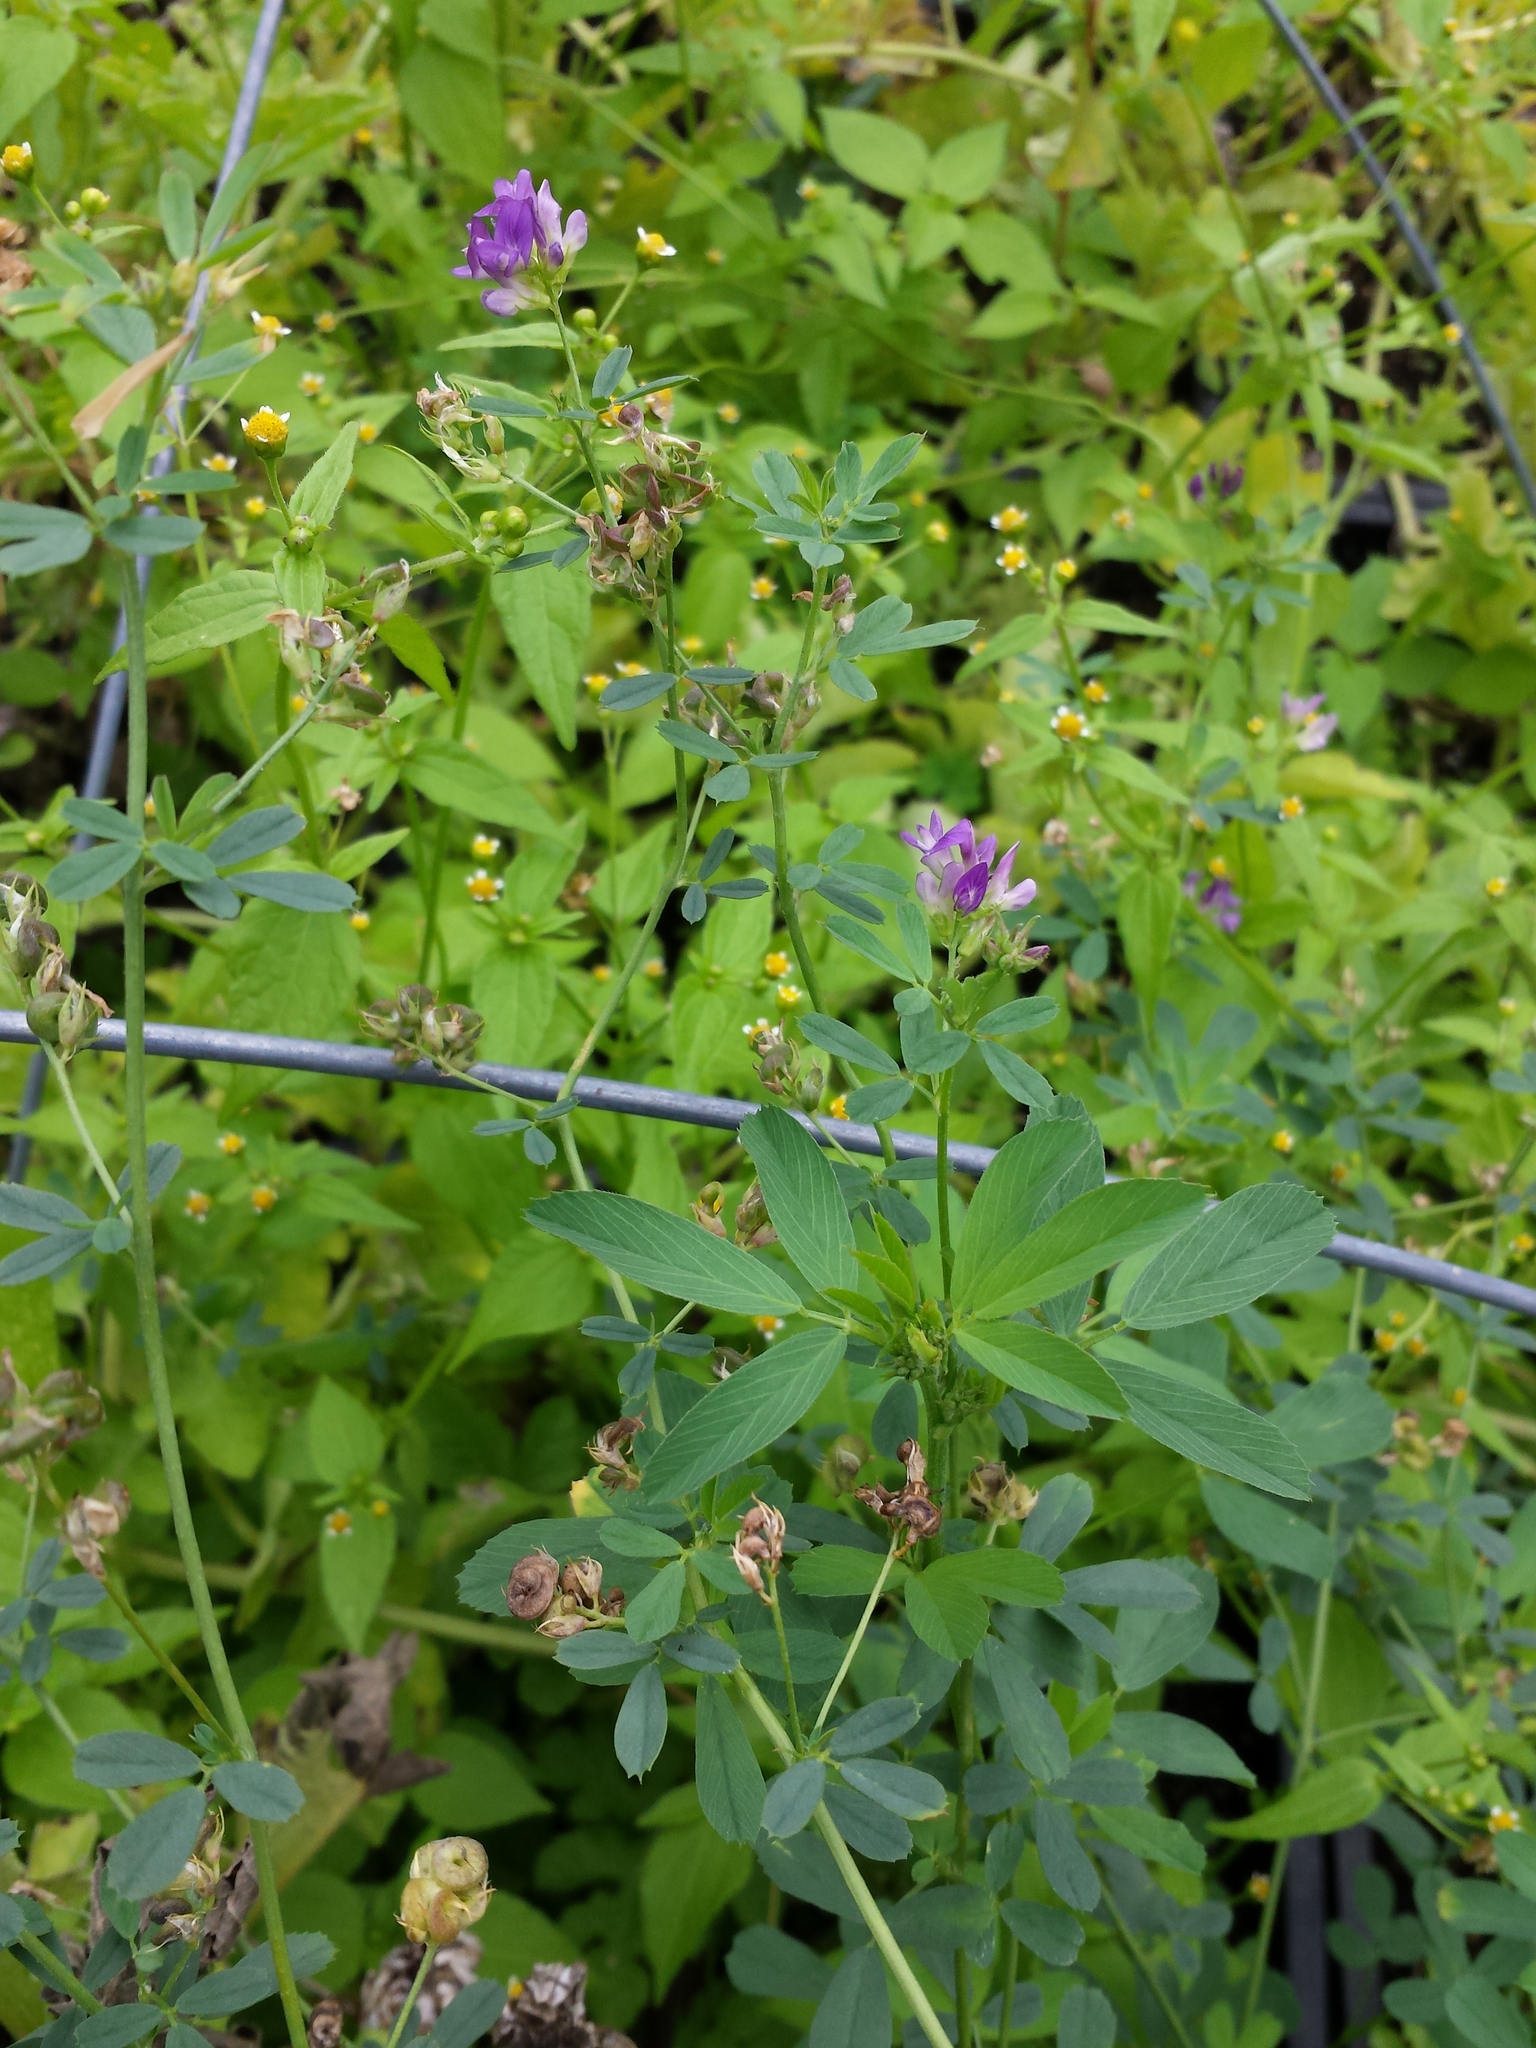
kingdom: Plantae
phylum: Tracheophyta
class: Magnoliopsida
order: Fabales
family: Fabaceae
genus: Medicago
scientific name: Medicago sativa
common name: Alfalfa
